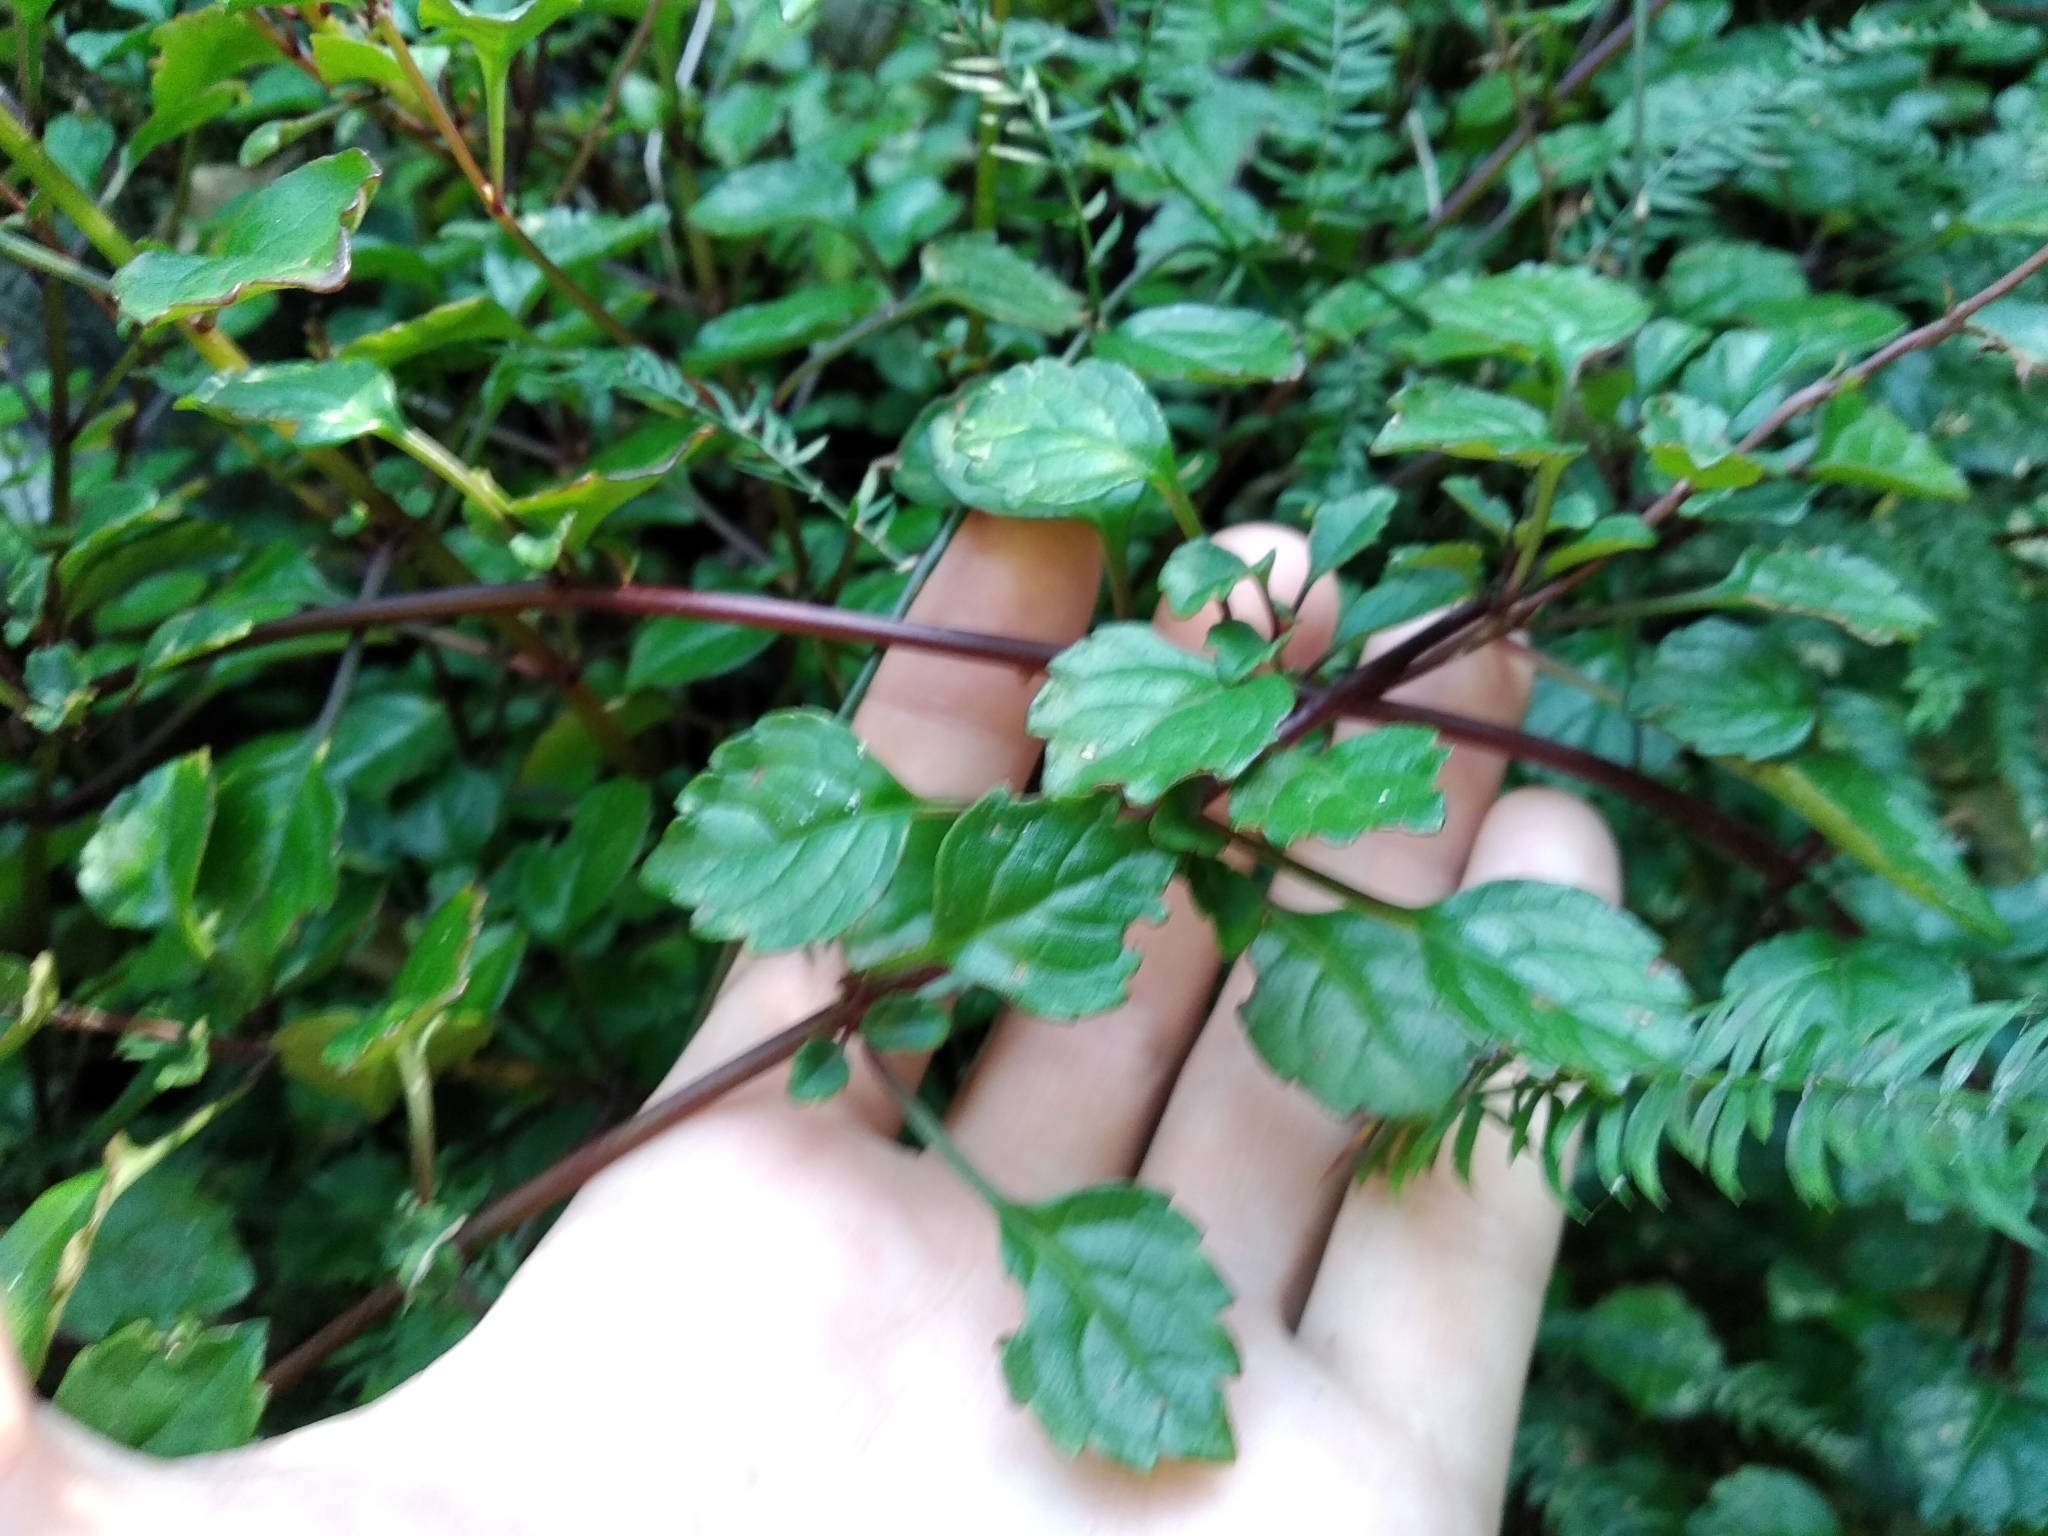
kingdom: Plantae
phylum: Tracheophyta
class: Magnoliopsida
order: Lamiales
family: Lamiaceae
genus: Plectranthus
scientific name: Plectranthus verticillatus
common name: Whorled plectranthus
